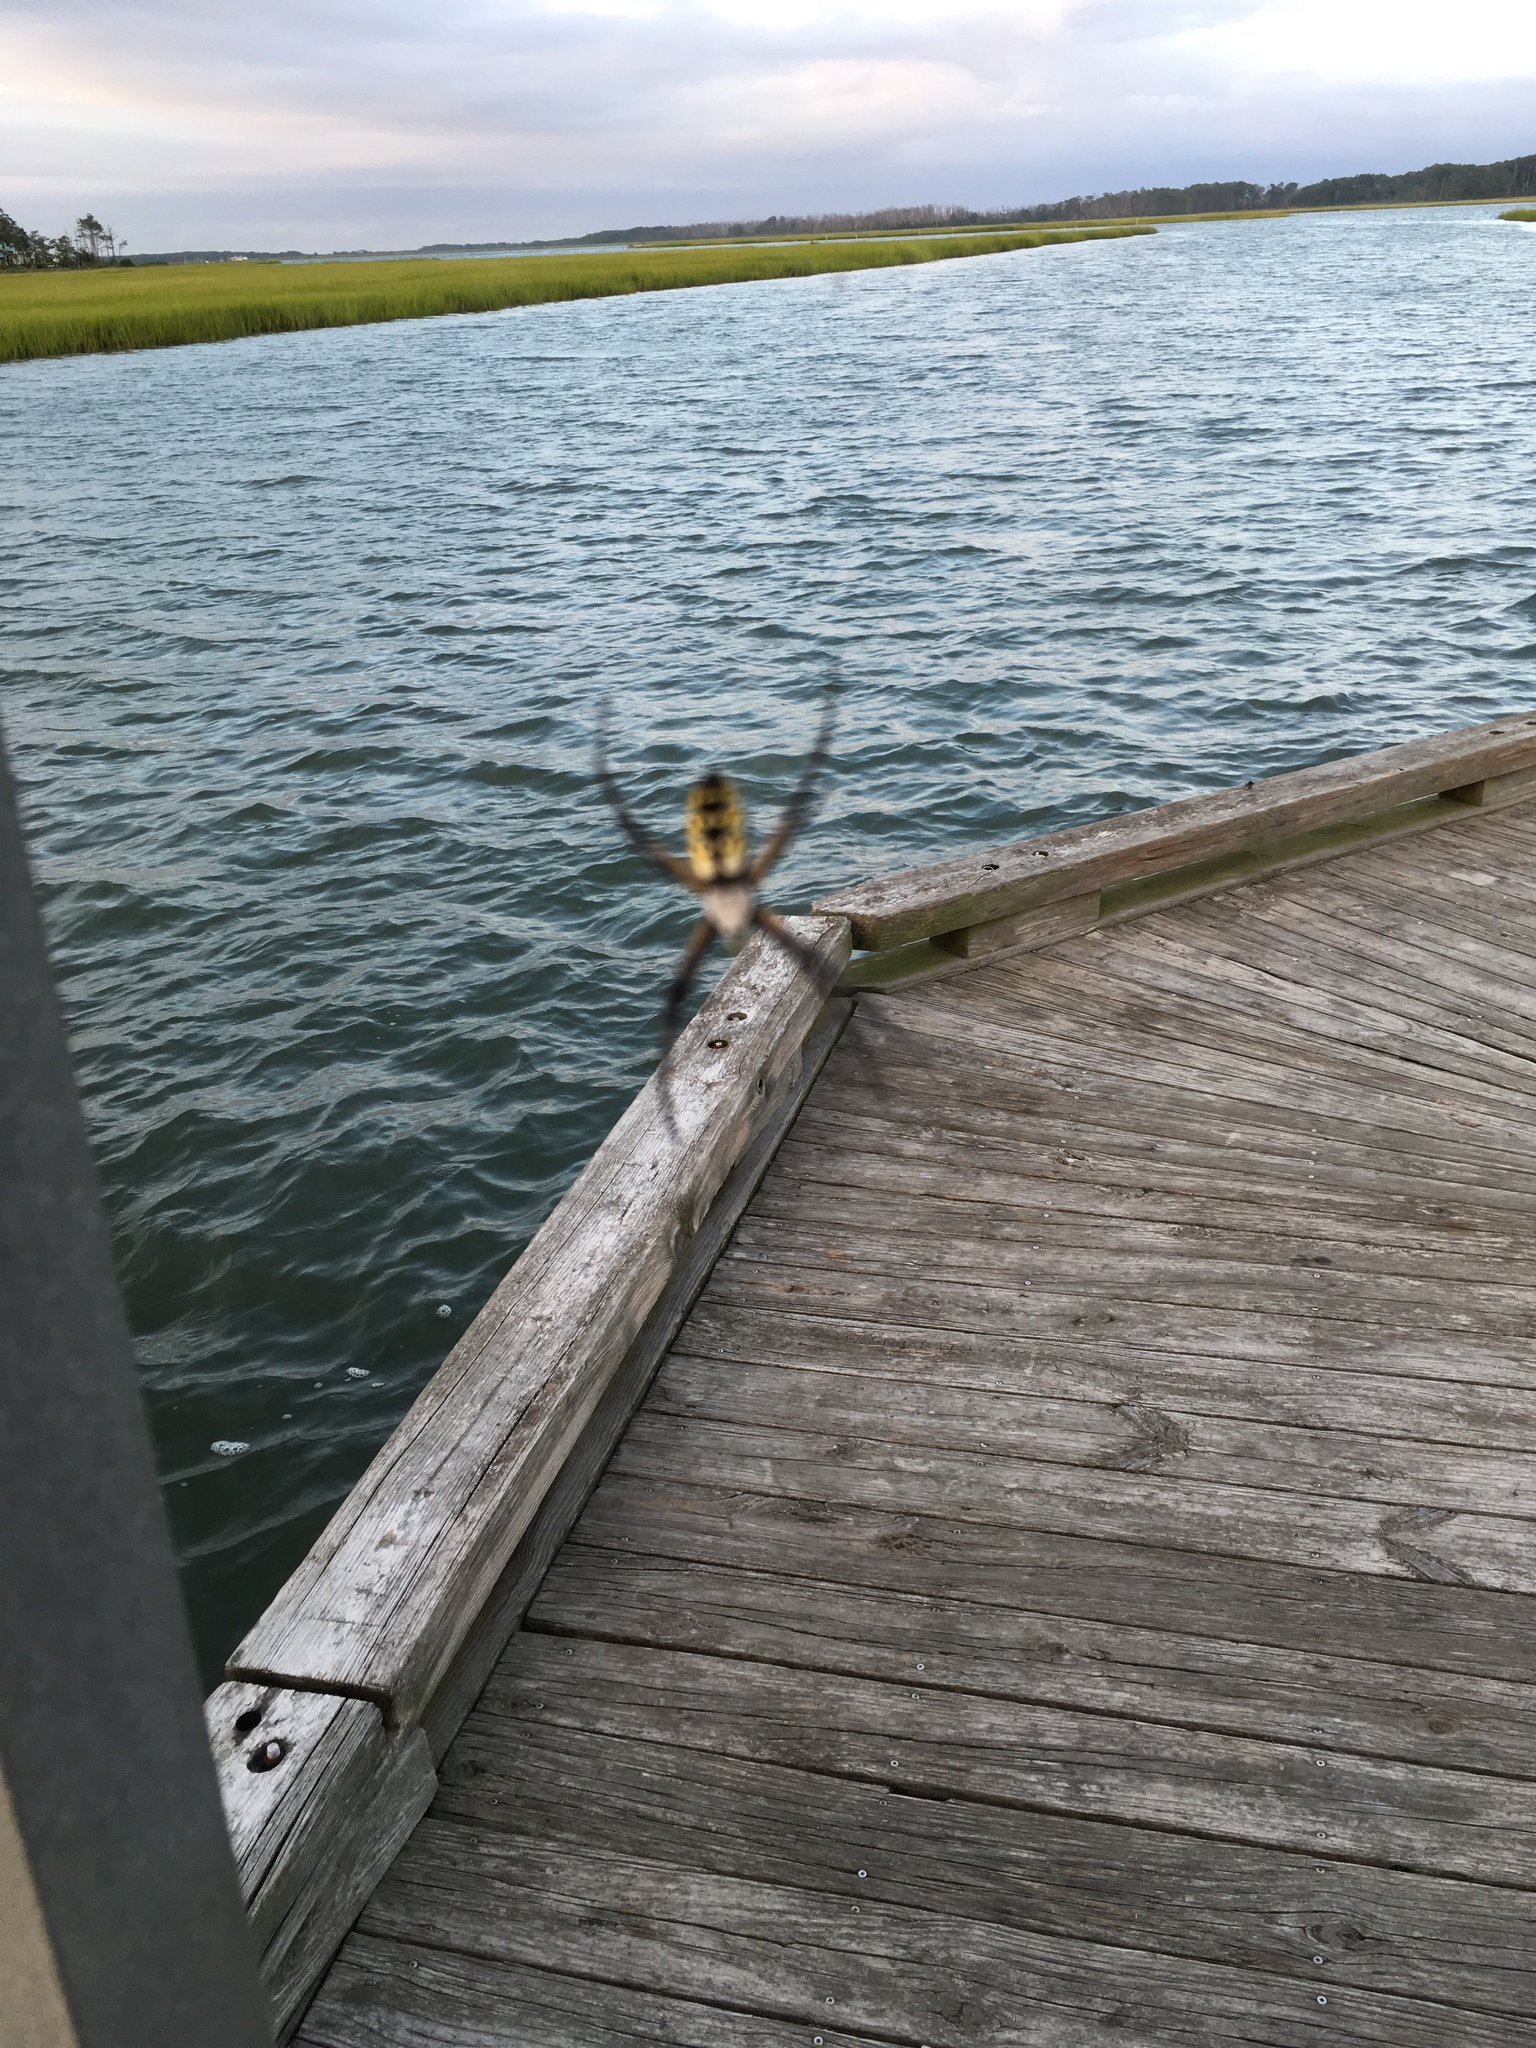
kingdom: Animalia
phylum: Arthropoda
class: Arachnida
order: Araneae
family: Araneidae
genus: Argiope
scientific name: Argiope aurantia
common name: Orb weavers
